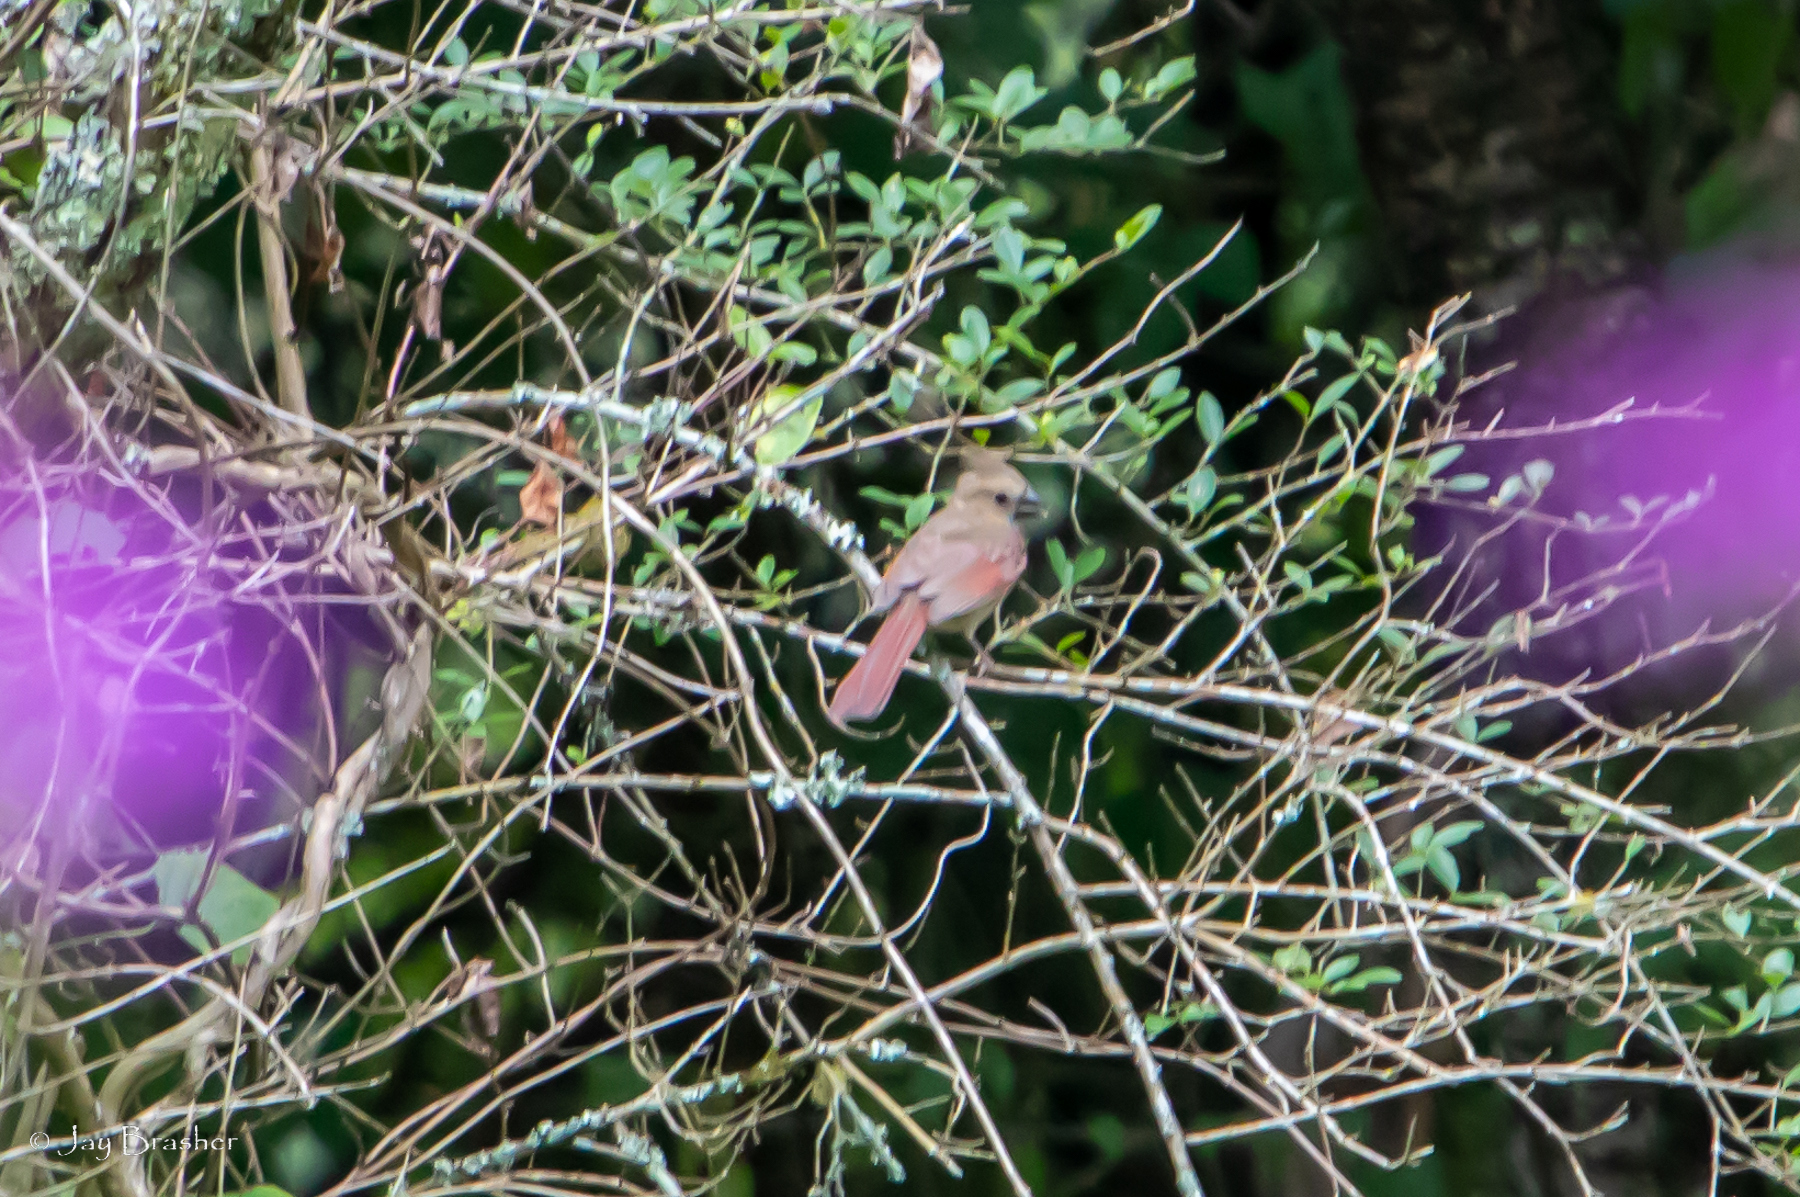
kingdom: Animalia
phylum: Chordata
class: Aves
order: Passeriformes
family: Cardinalidae
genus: Cardinalis
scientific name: Cardinalis cardinalis
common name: Northern cardinal
